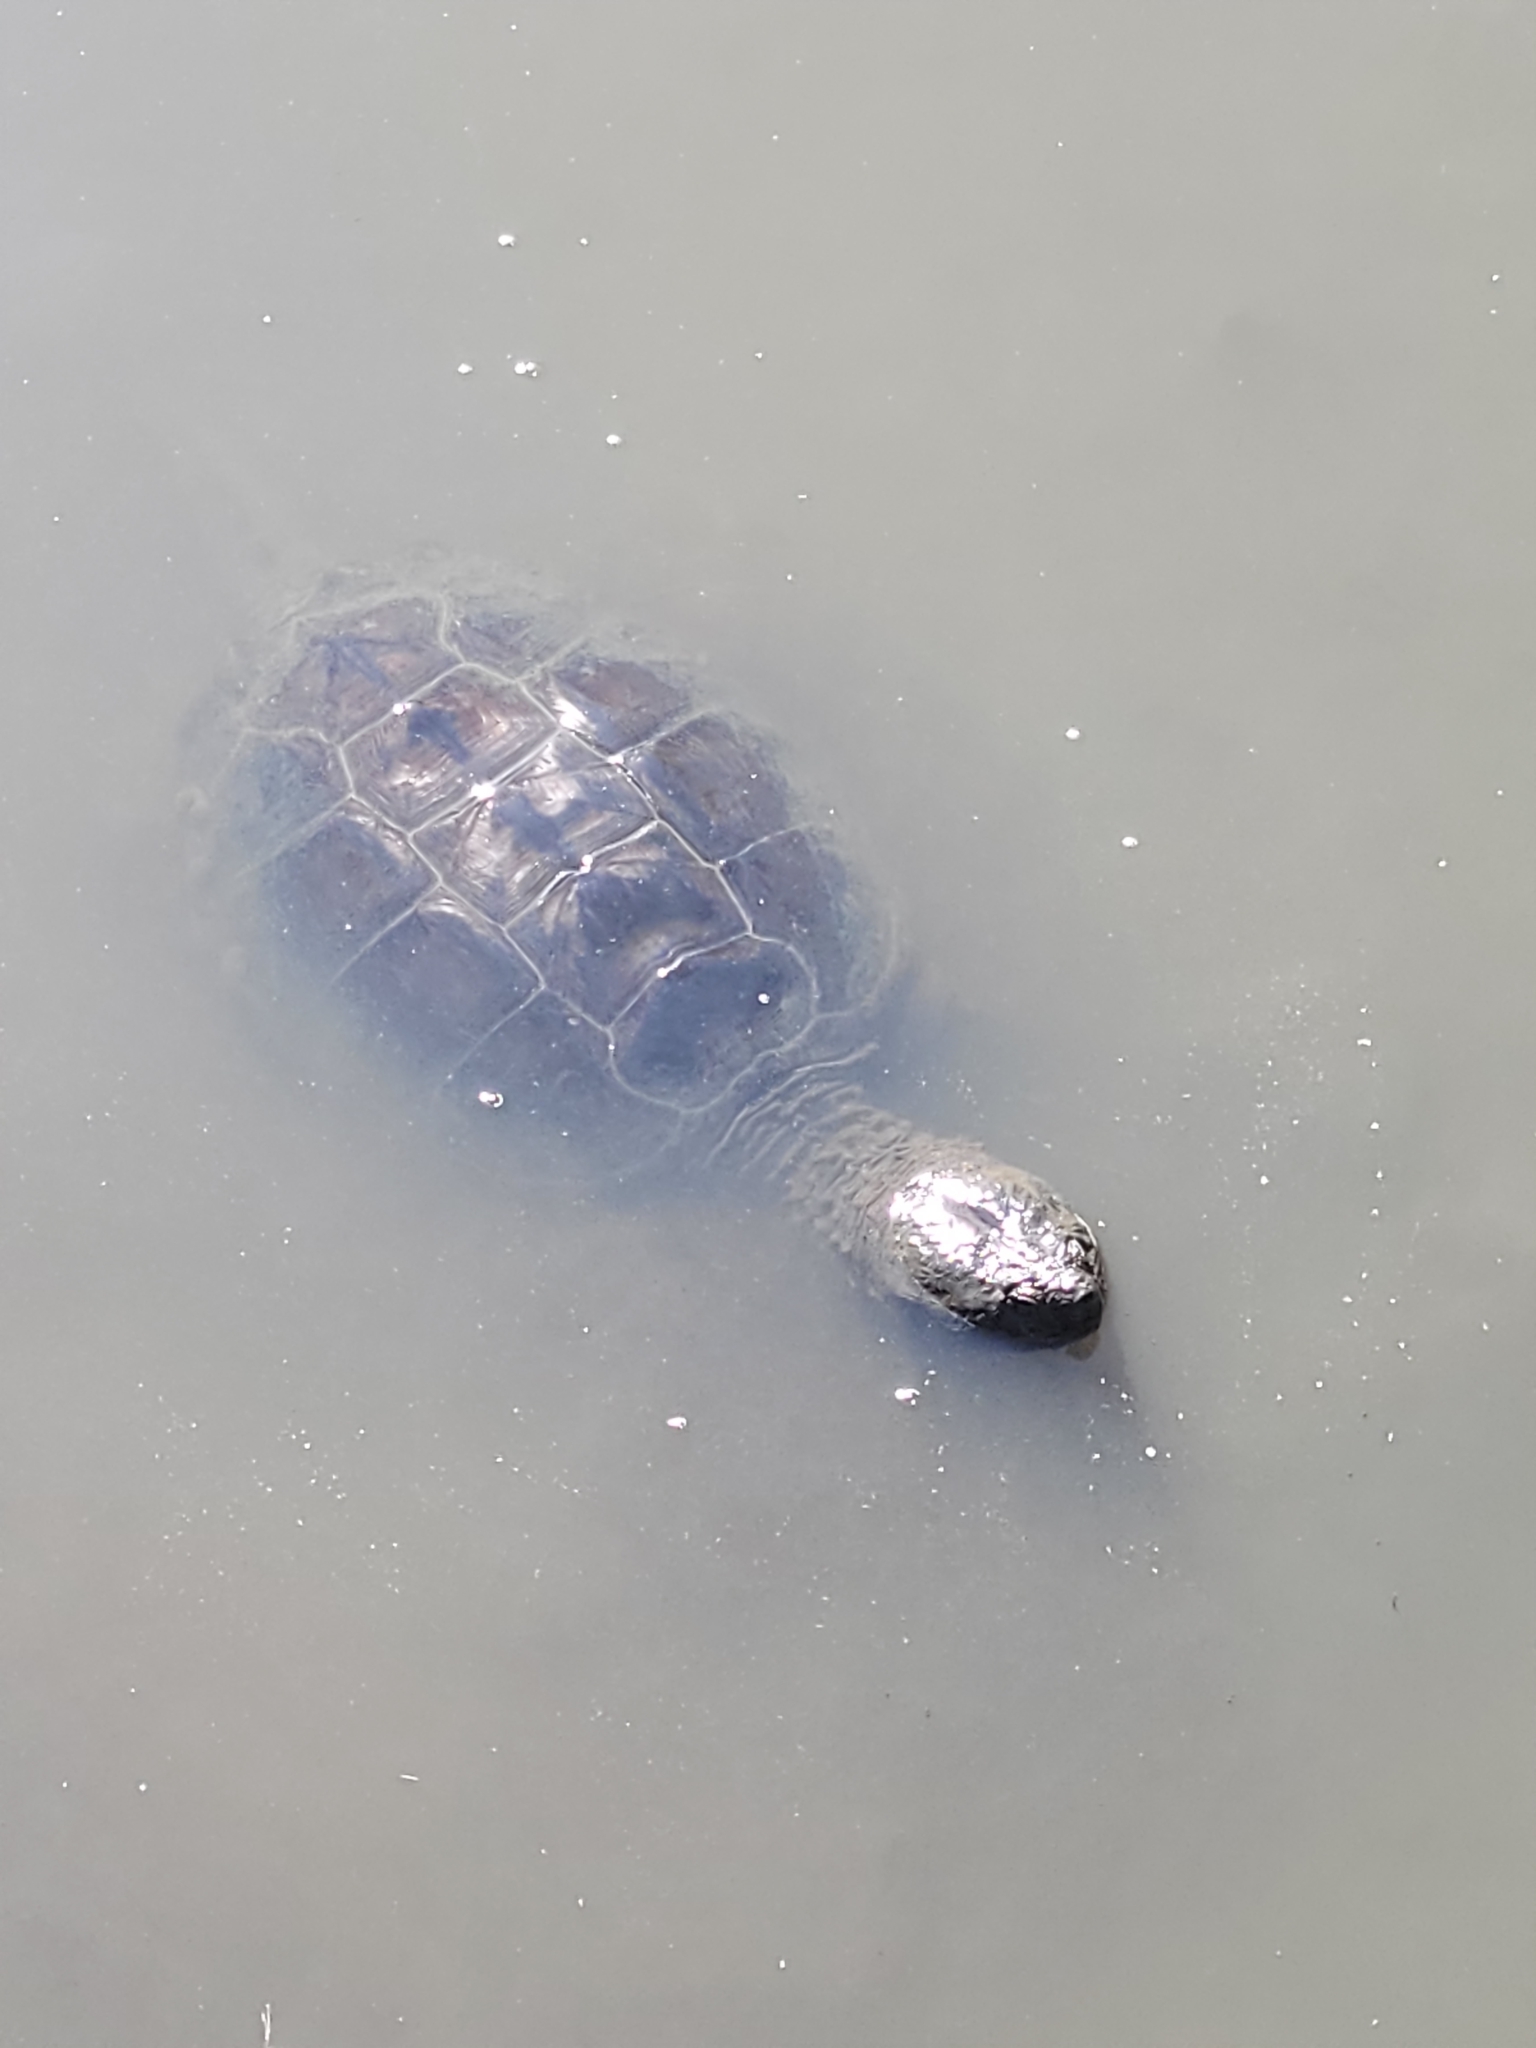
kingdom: Animalia
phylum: Chordata
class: Testudines
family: Chelydridae
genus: Chelydra
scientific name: Chelydra serpentina
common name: Common snapping turtle
